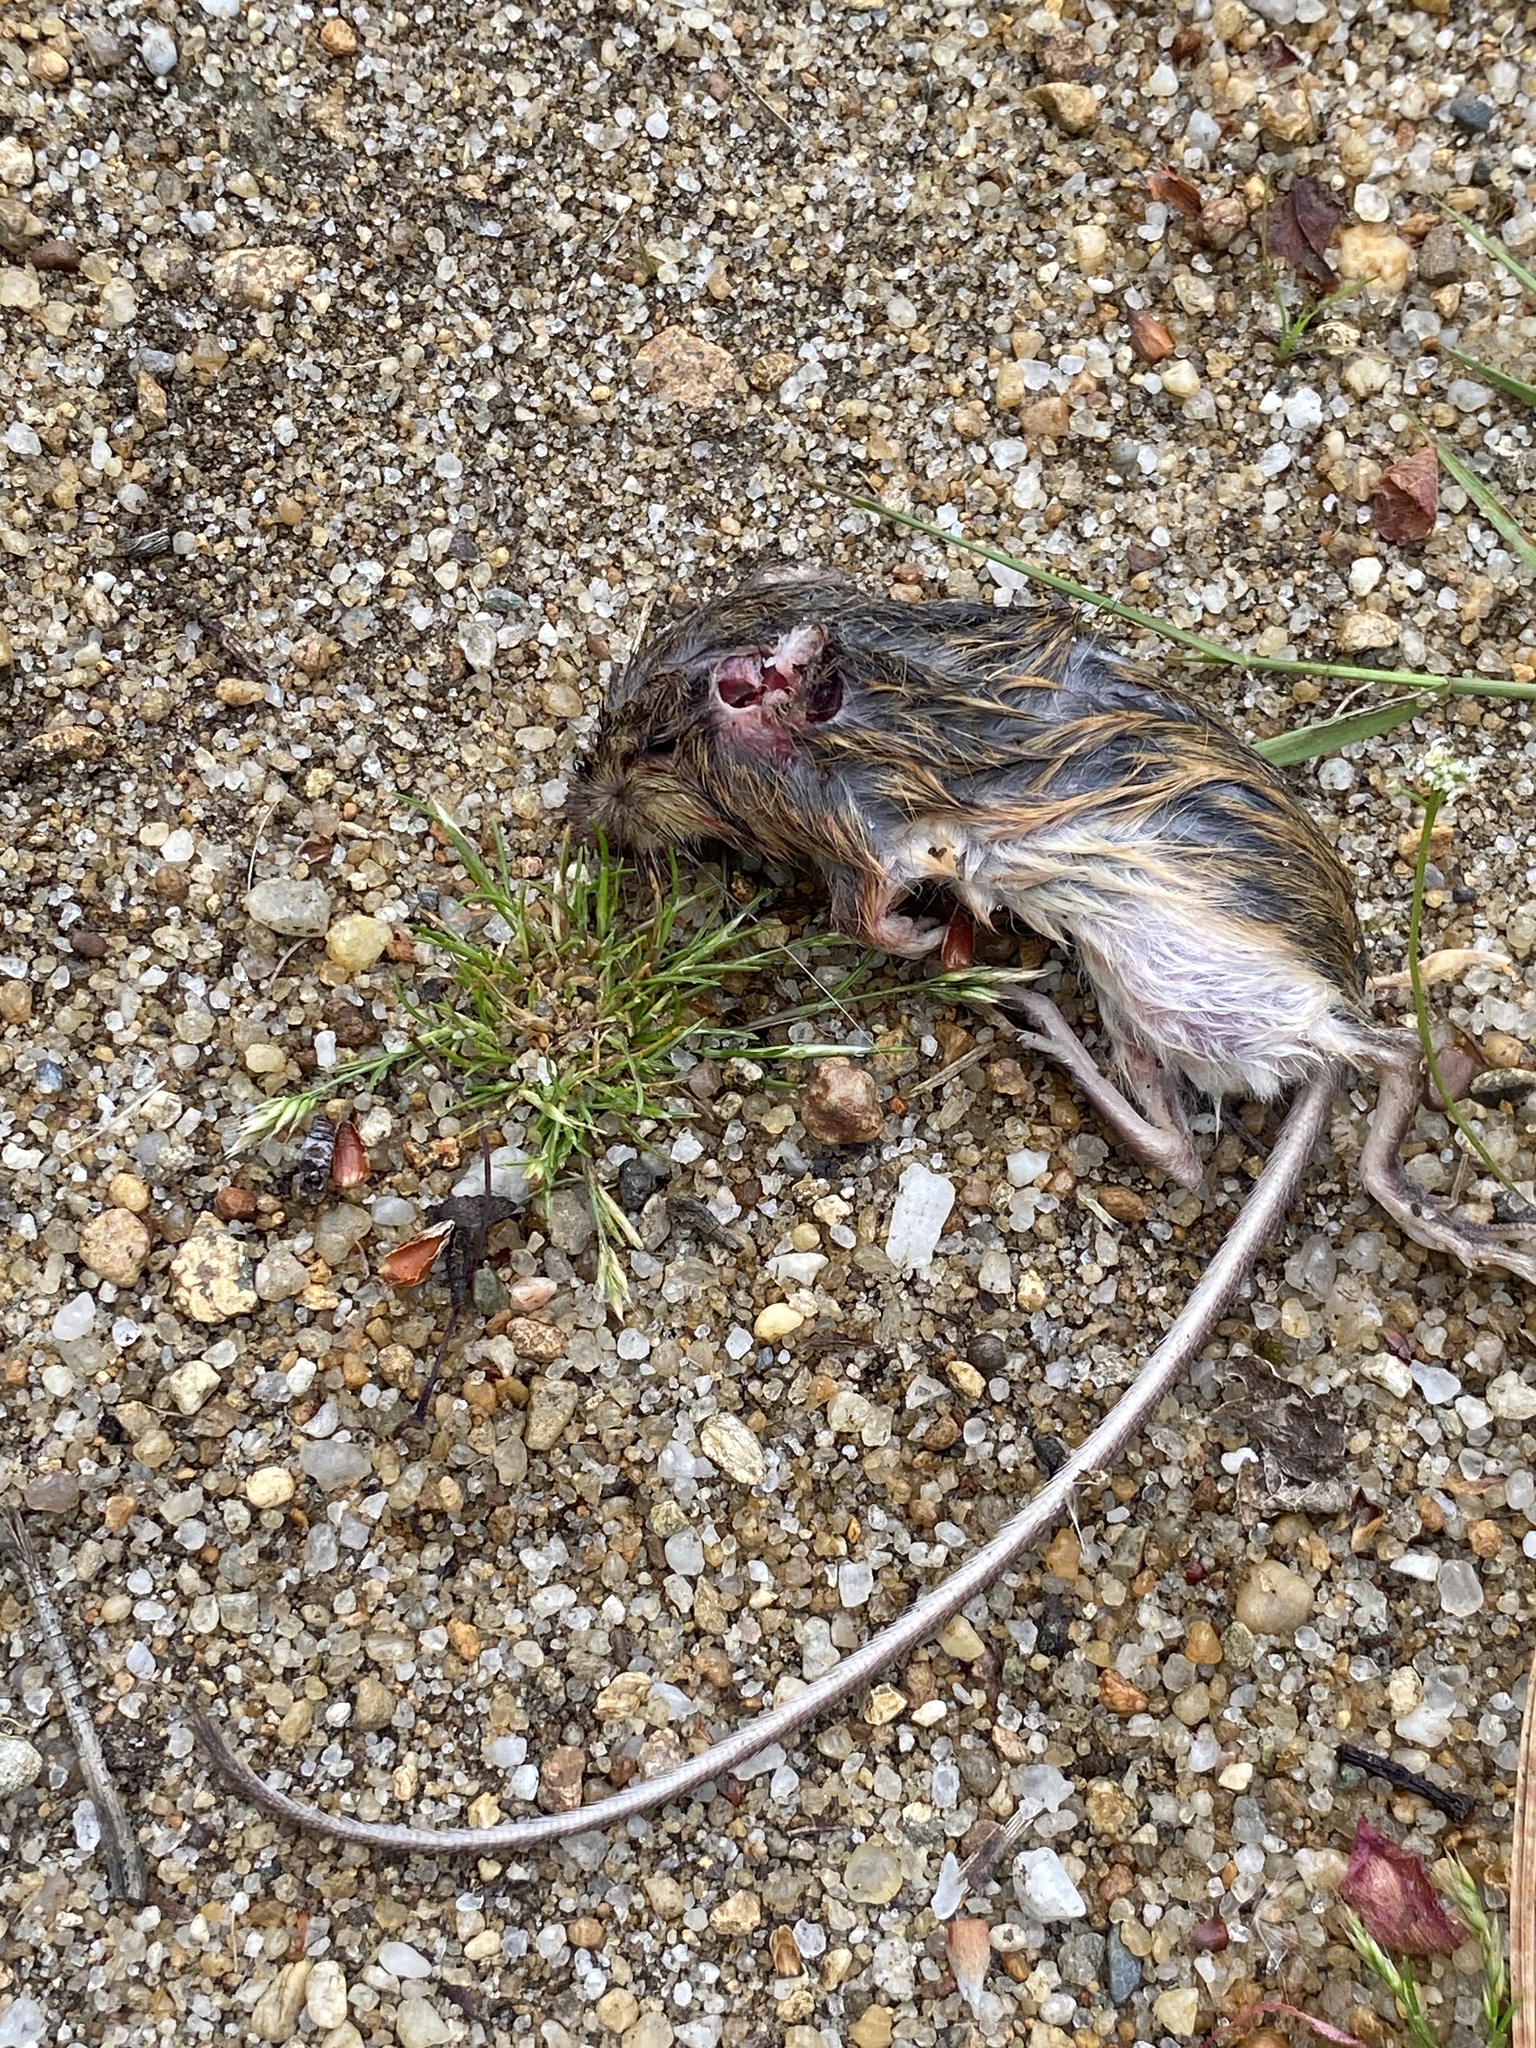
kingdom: Animalia
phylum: Chordata
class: Mammalia
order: Rodentia
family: Dipodidae
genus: Zapus
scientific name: Zapus hudsonius
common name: Meadow jumping mouse
